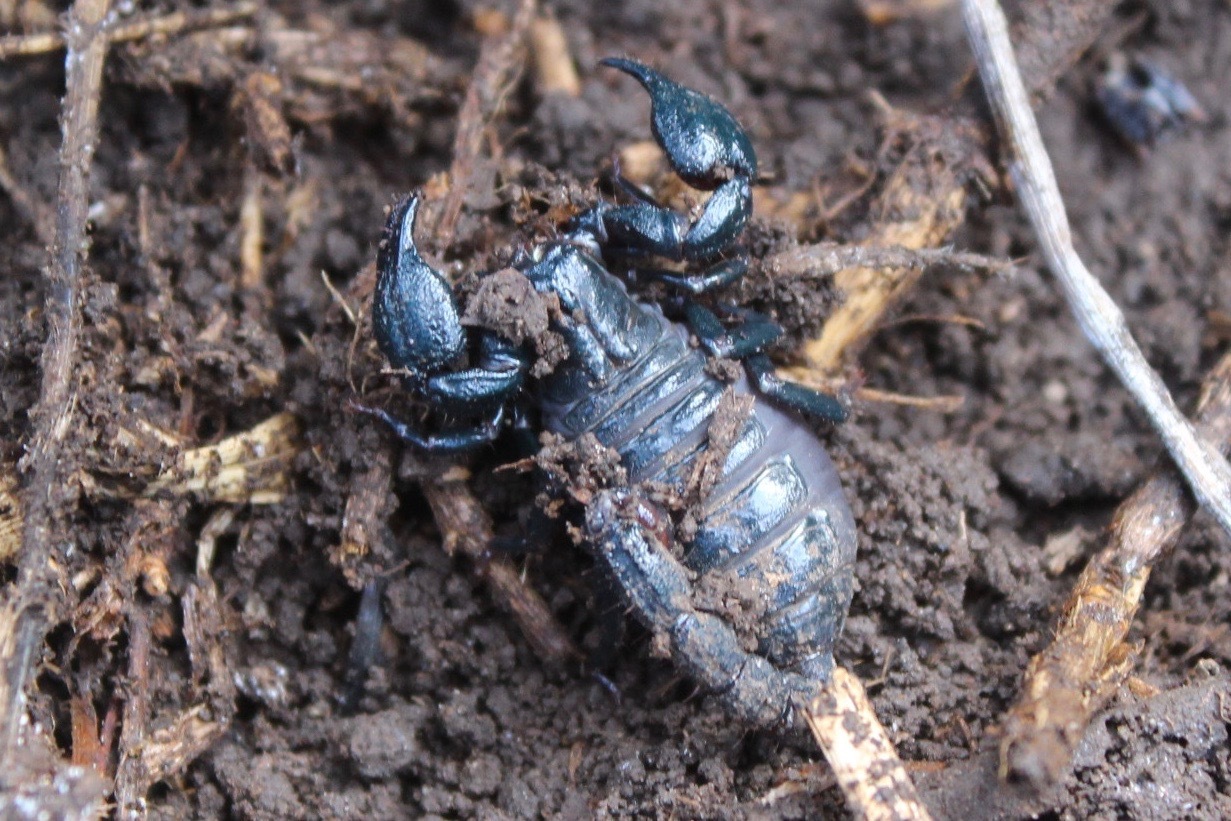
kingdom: Animalia
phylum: Arthropoda
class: Arachnida
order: Scorpiones
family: Chactidae
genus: Teuthraustes
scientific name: Teuthraustes atramentarius
